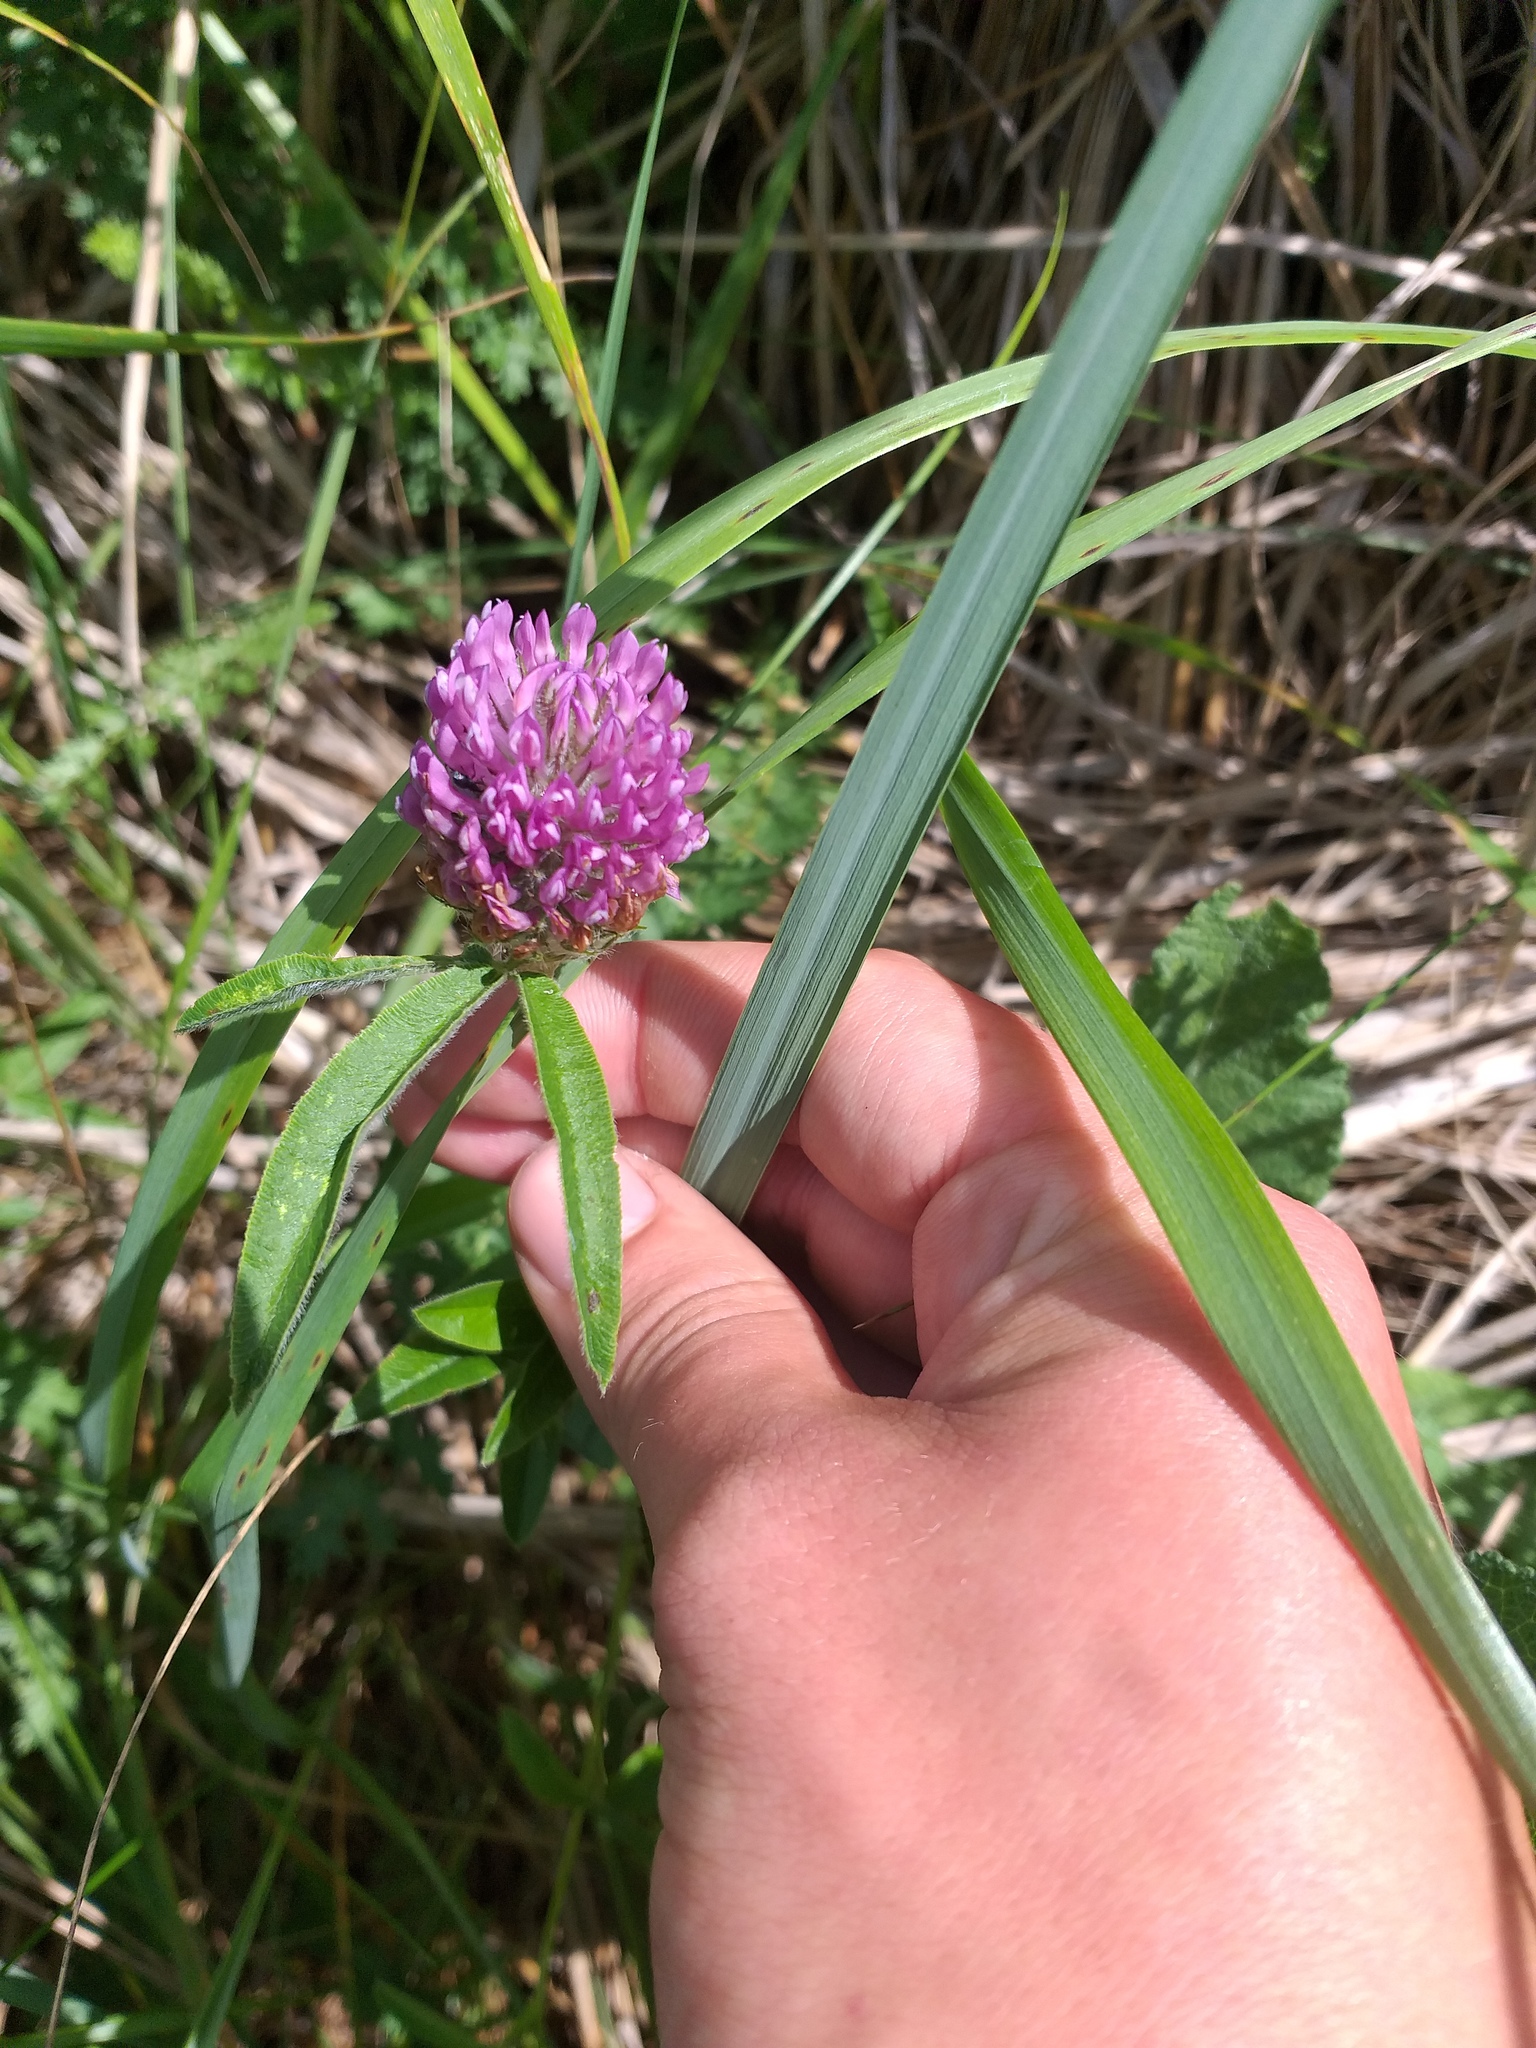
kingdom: Plantae
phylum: Tracheophyta
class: Magnoliopsida
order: Fabales
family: Fabaceae
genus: Trifolium
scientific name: Trifolium alpestre
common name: Owl-head clover
